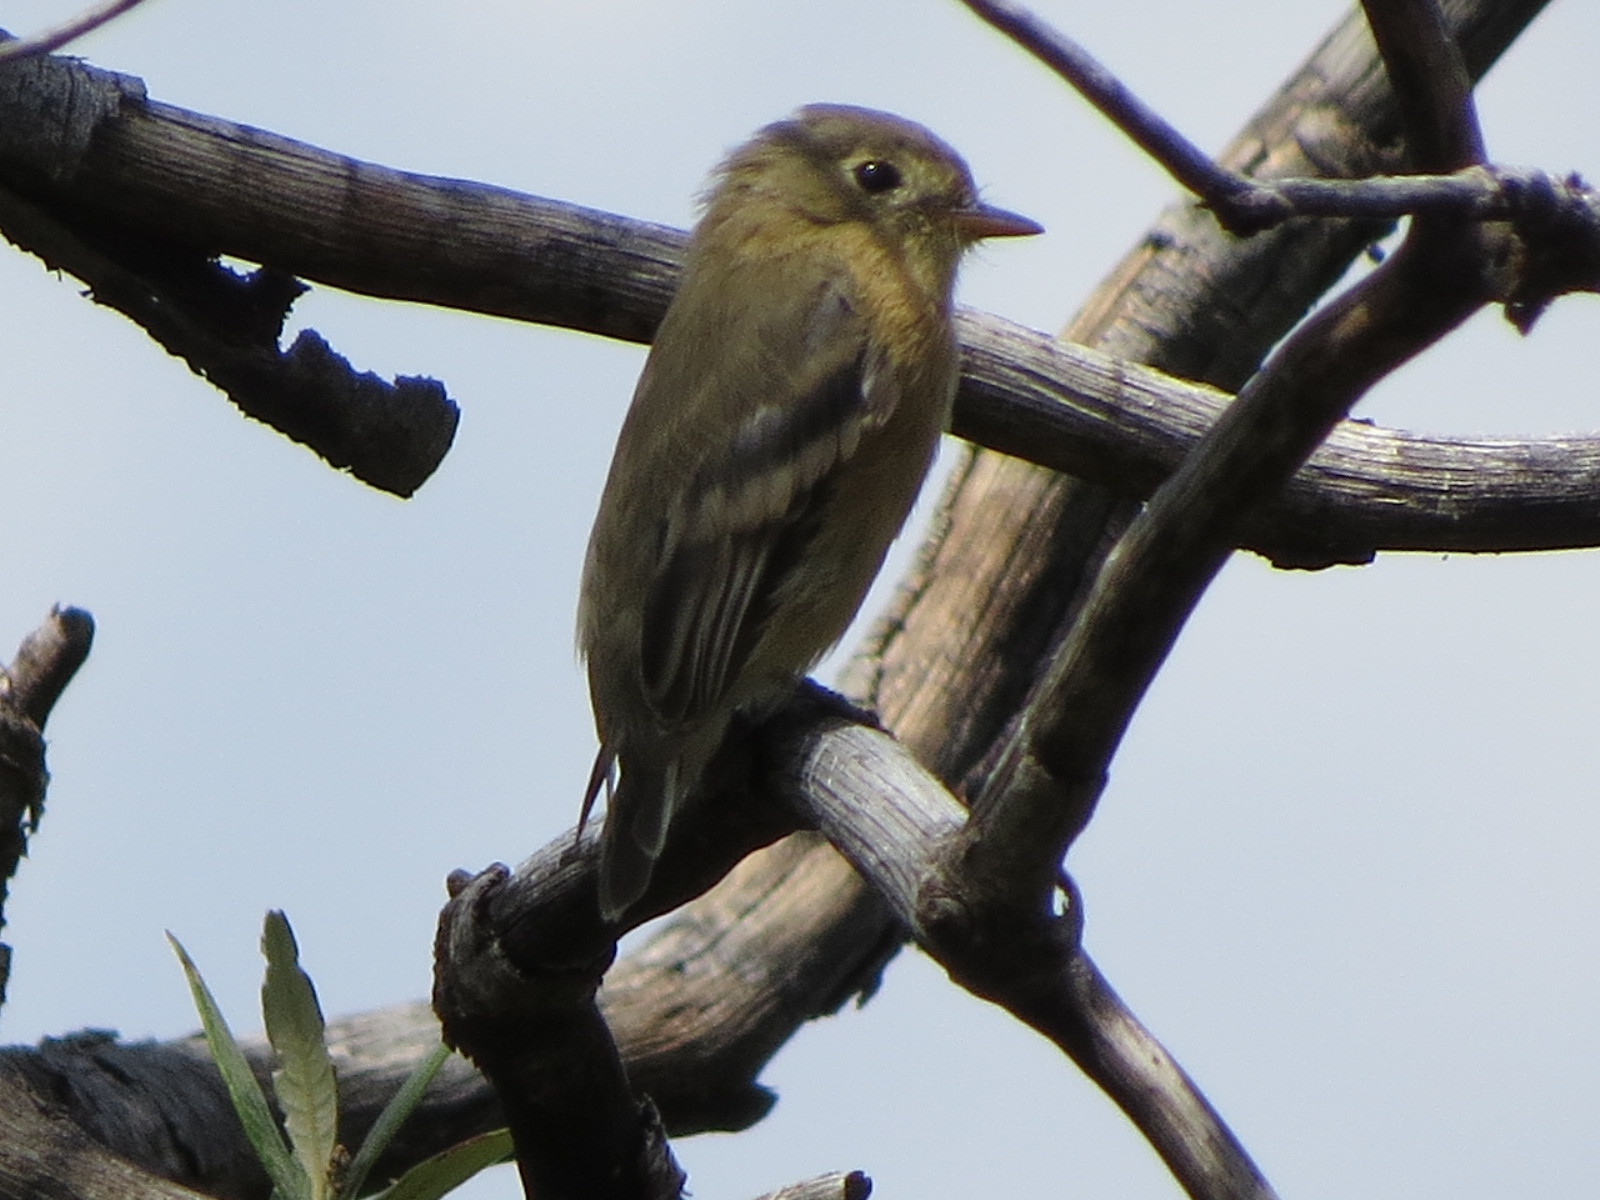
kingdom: Animalia
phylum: Chordata
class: Aves
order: Passeriformes
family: Tyrannidae
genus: Empidonax
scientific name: Empidonax fulvifrons
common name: Buff-breasted flycatcher
